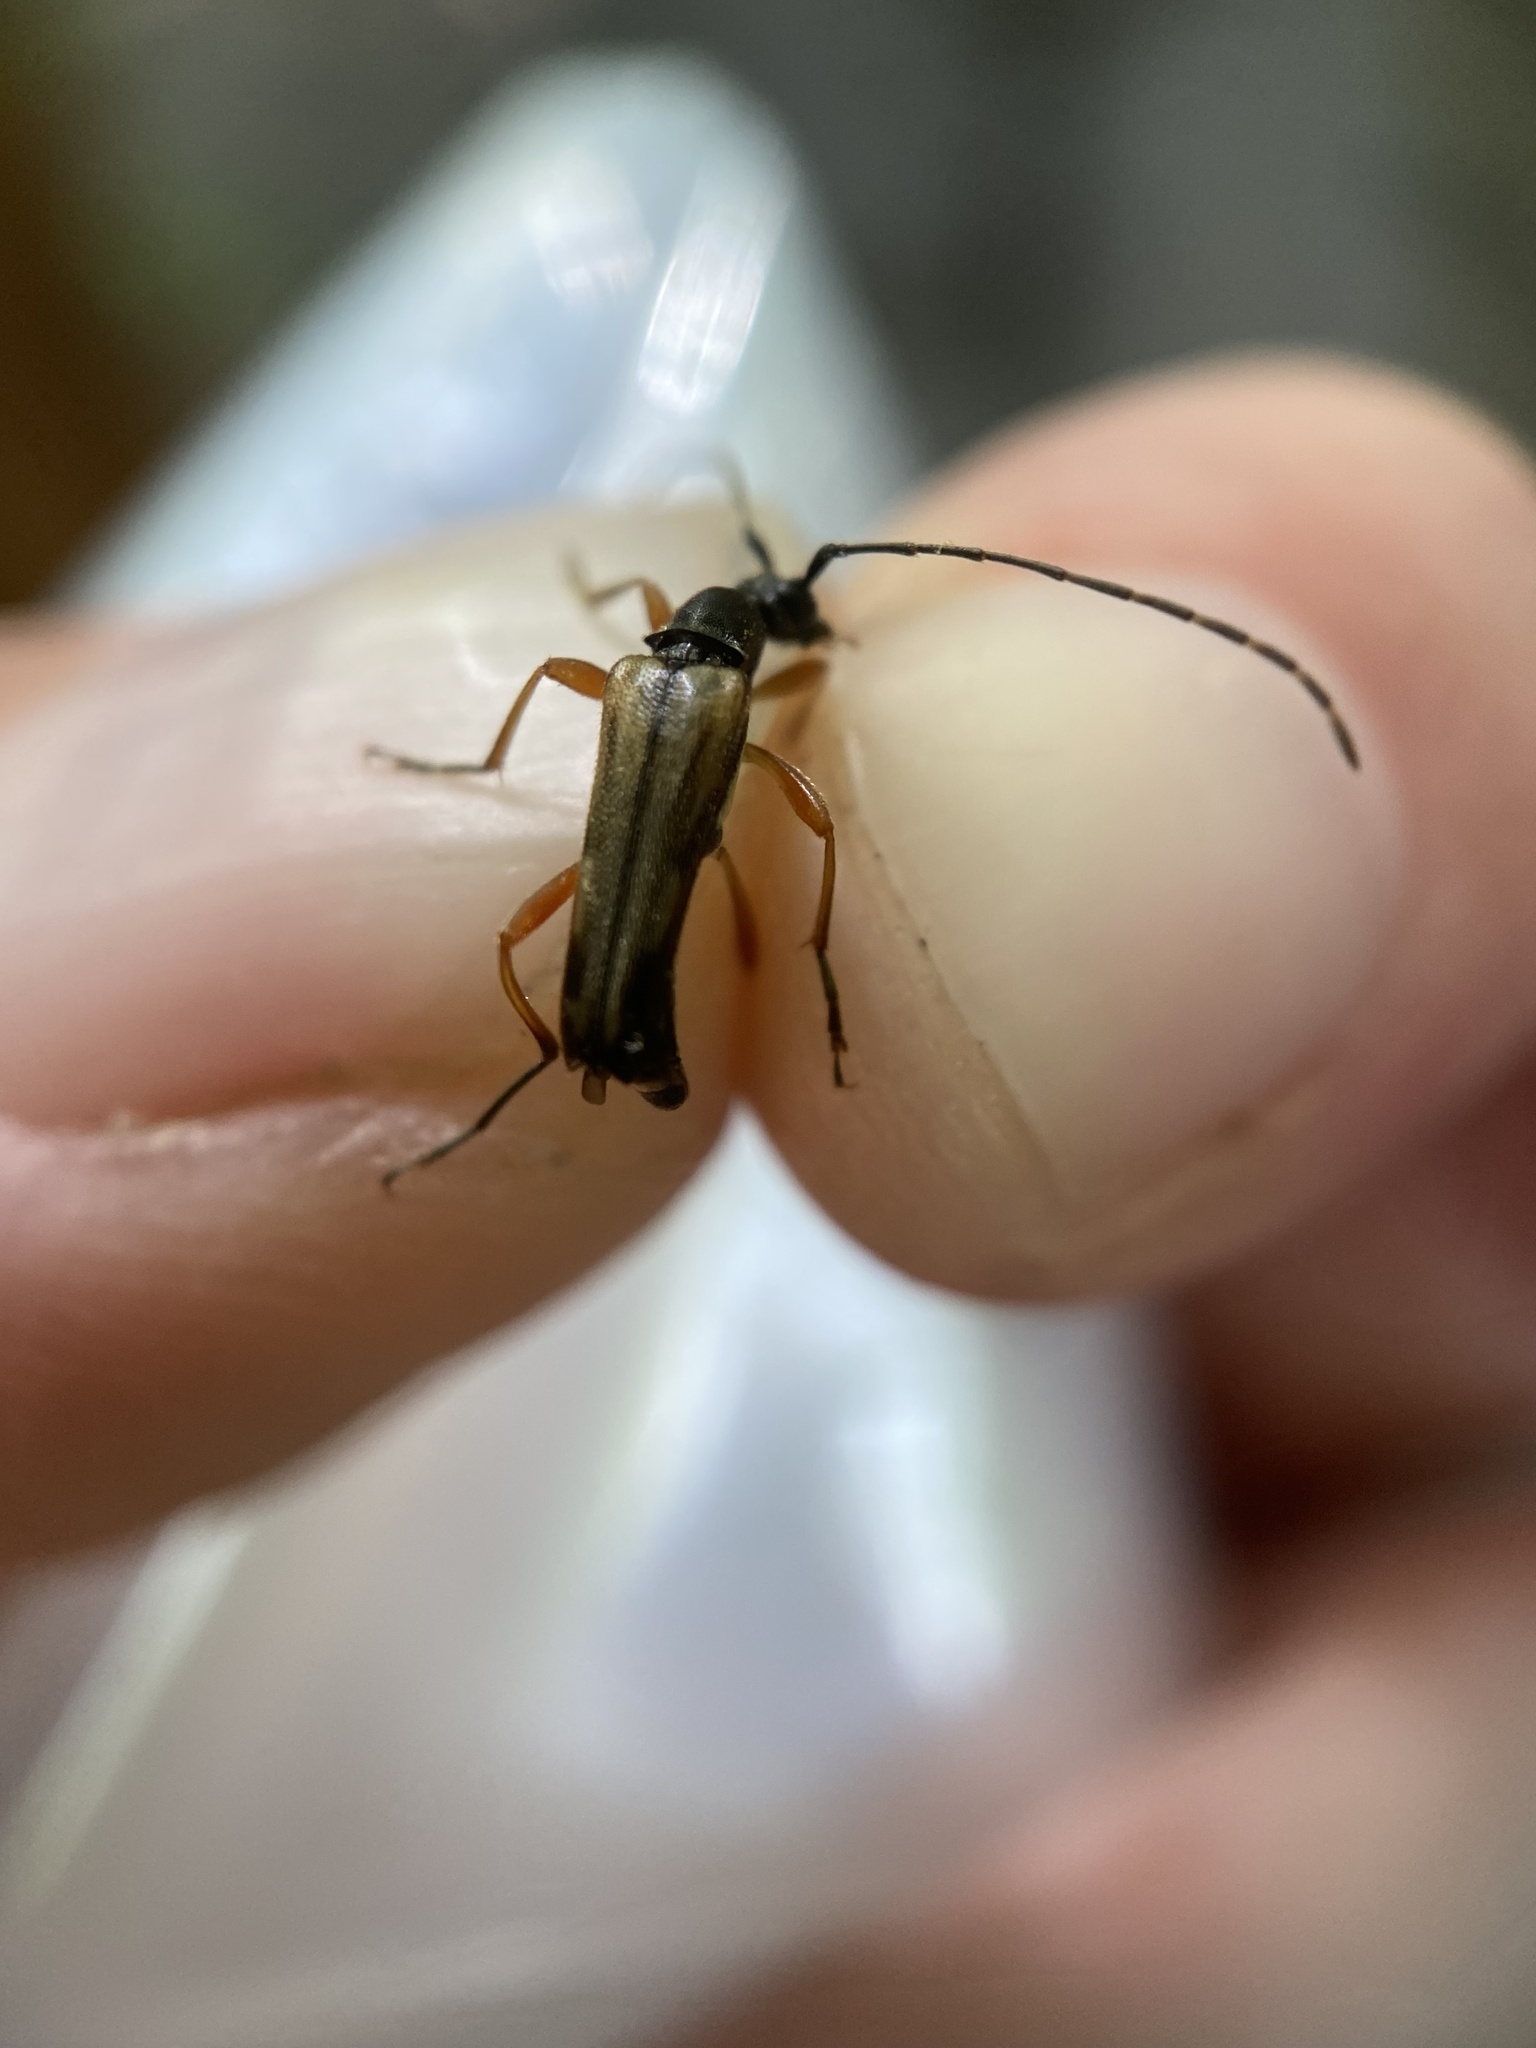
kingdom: Animalia
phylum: Arthropoda
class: Insecta
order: Coleoptera
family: Cerambycidae
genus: Analeptura
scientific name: Analeptura lineola
